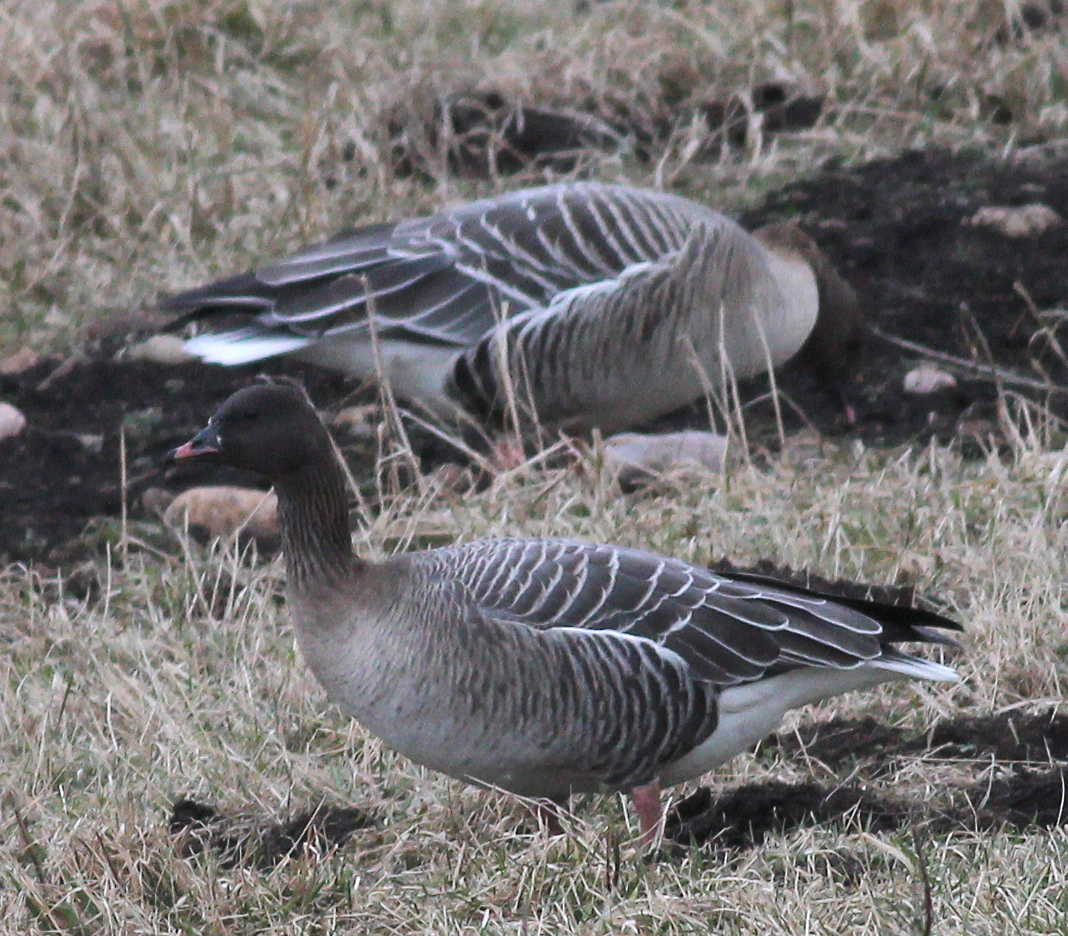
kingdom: Animalia
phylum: Chordata
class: Aves
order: Anseriformes
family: Anatidae
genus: Anser
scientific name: Anser brachyrhynchus
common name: Pink-footed goose
